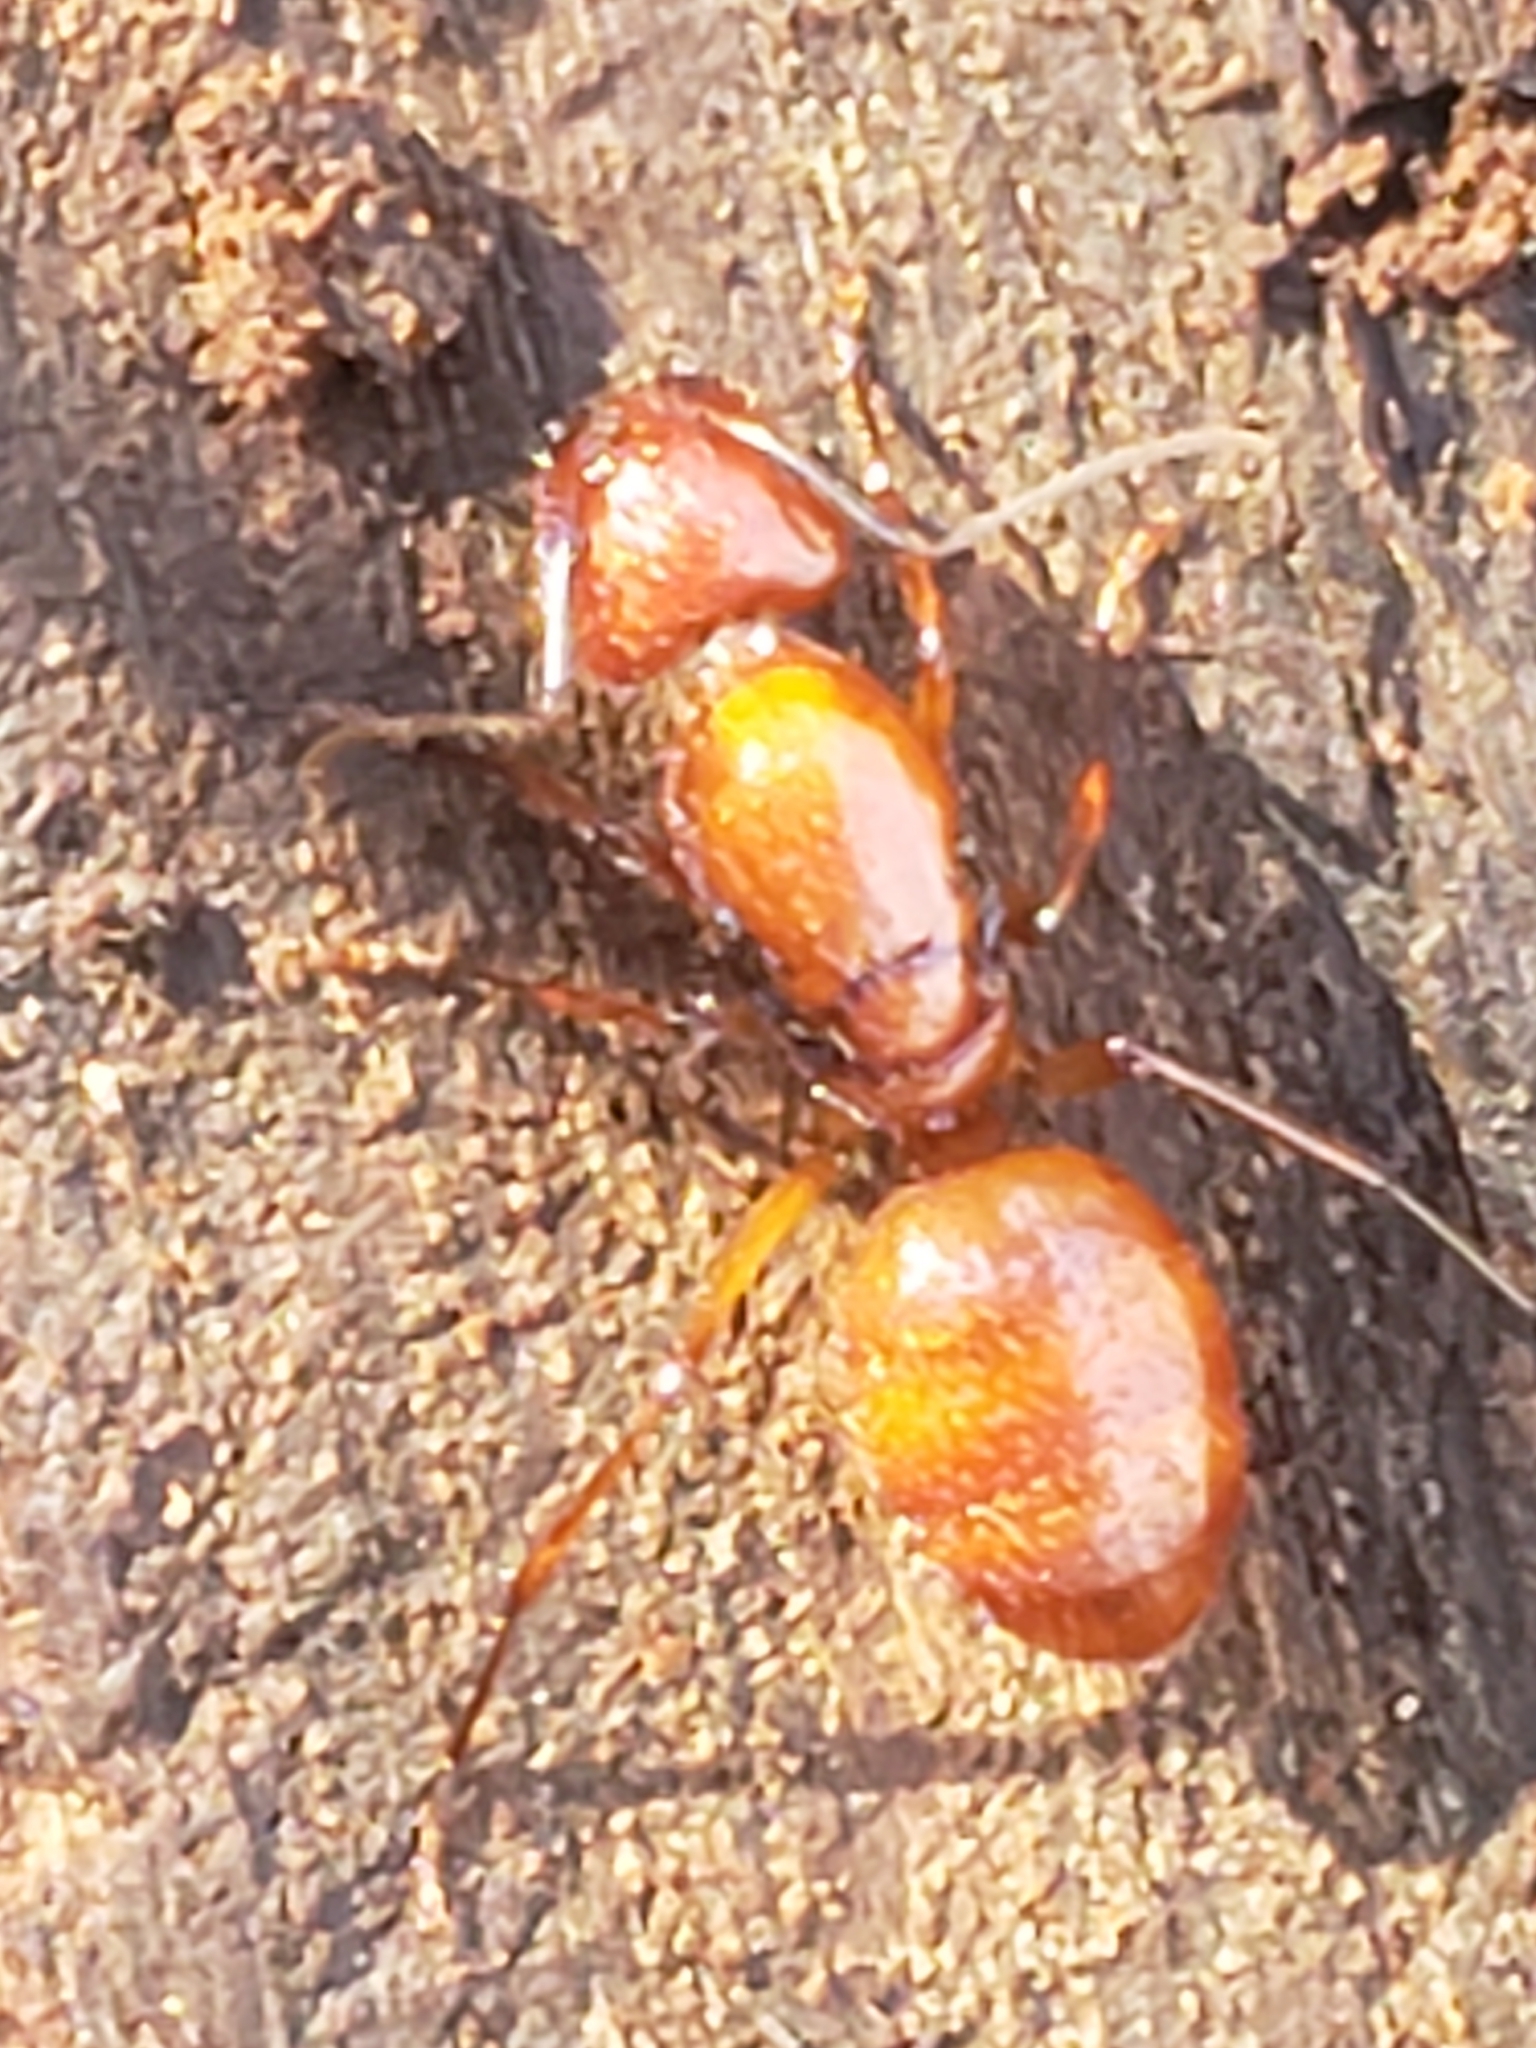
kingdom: Animalia
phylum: Arthropoda
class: Insecta
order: Hymenoptera
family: Formicidae
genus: Camponotus
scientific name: Camponotus castaneus
